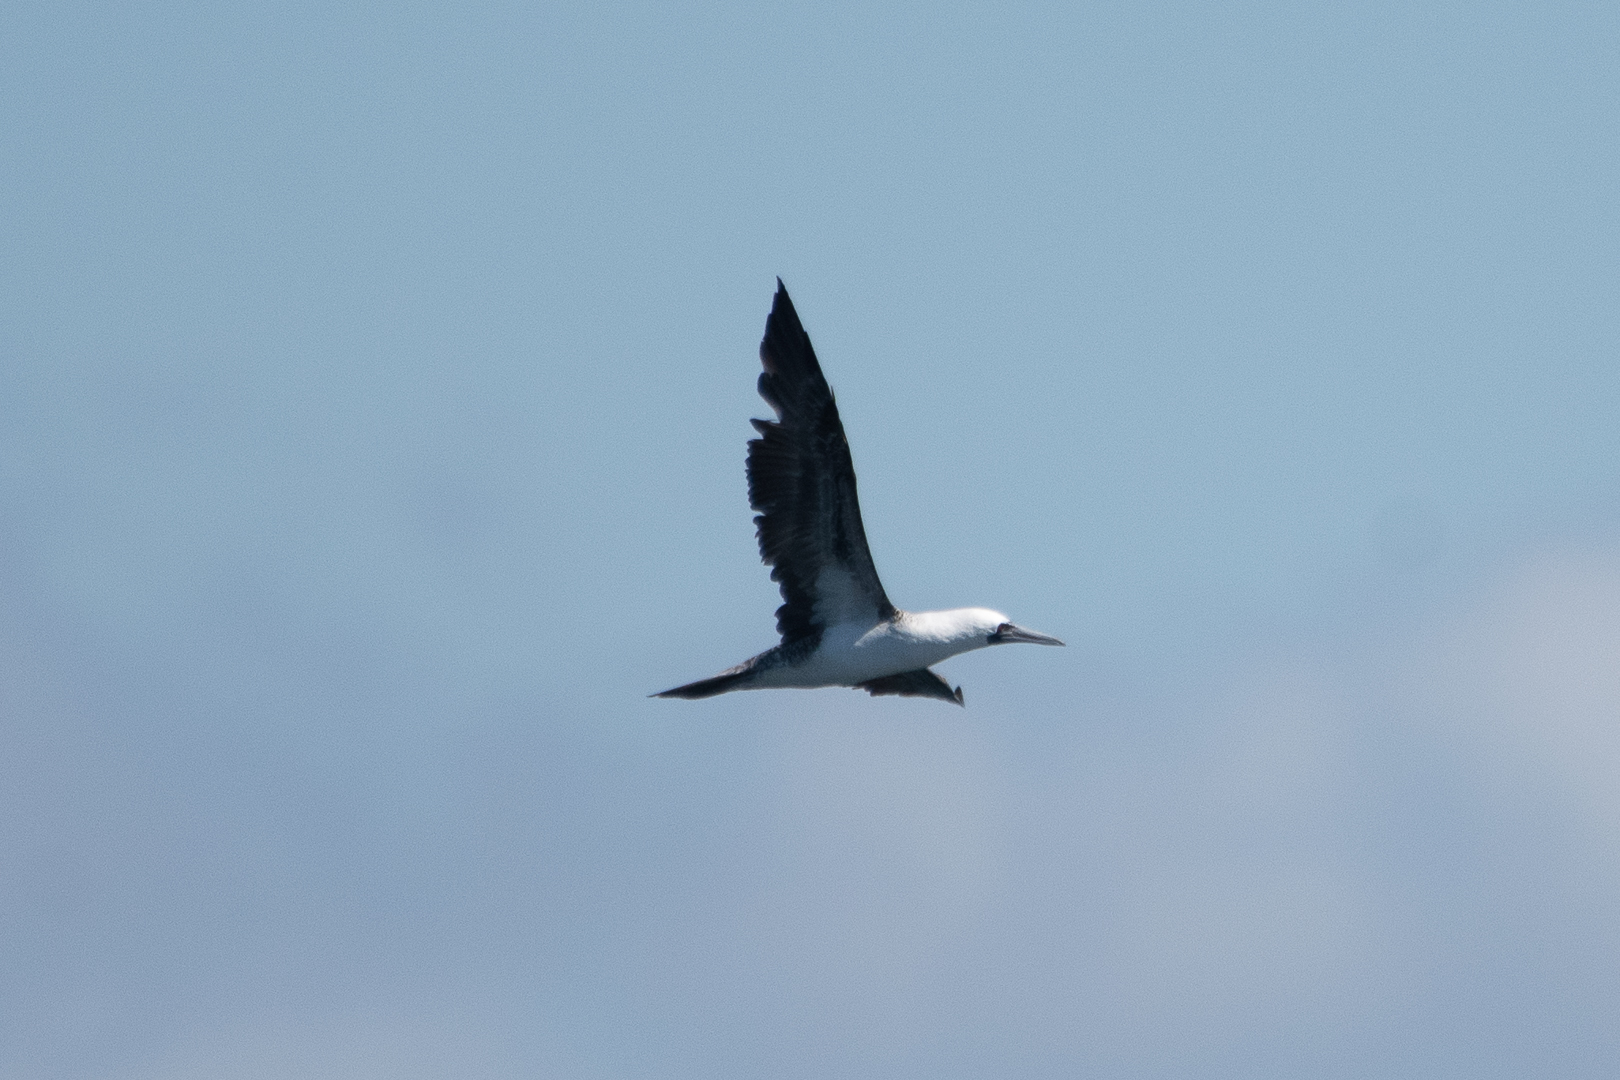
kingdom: Animalia
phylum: Chordata
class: Aves
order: Suliformes
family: Sulidae
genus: Sula
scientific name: Sula variegata
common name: Peruvian booby
